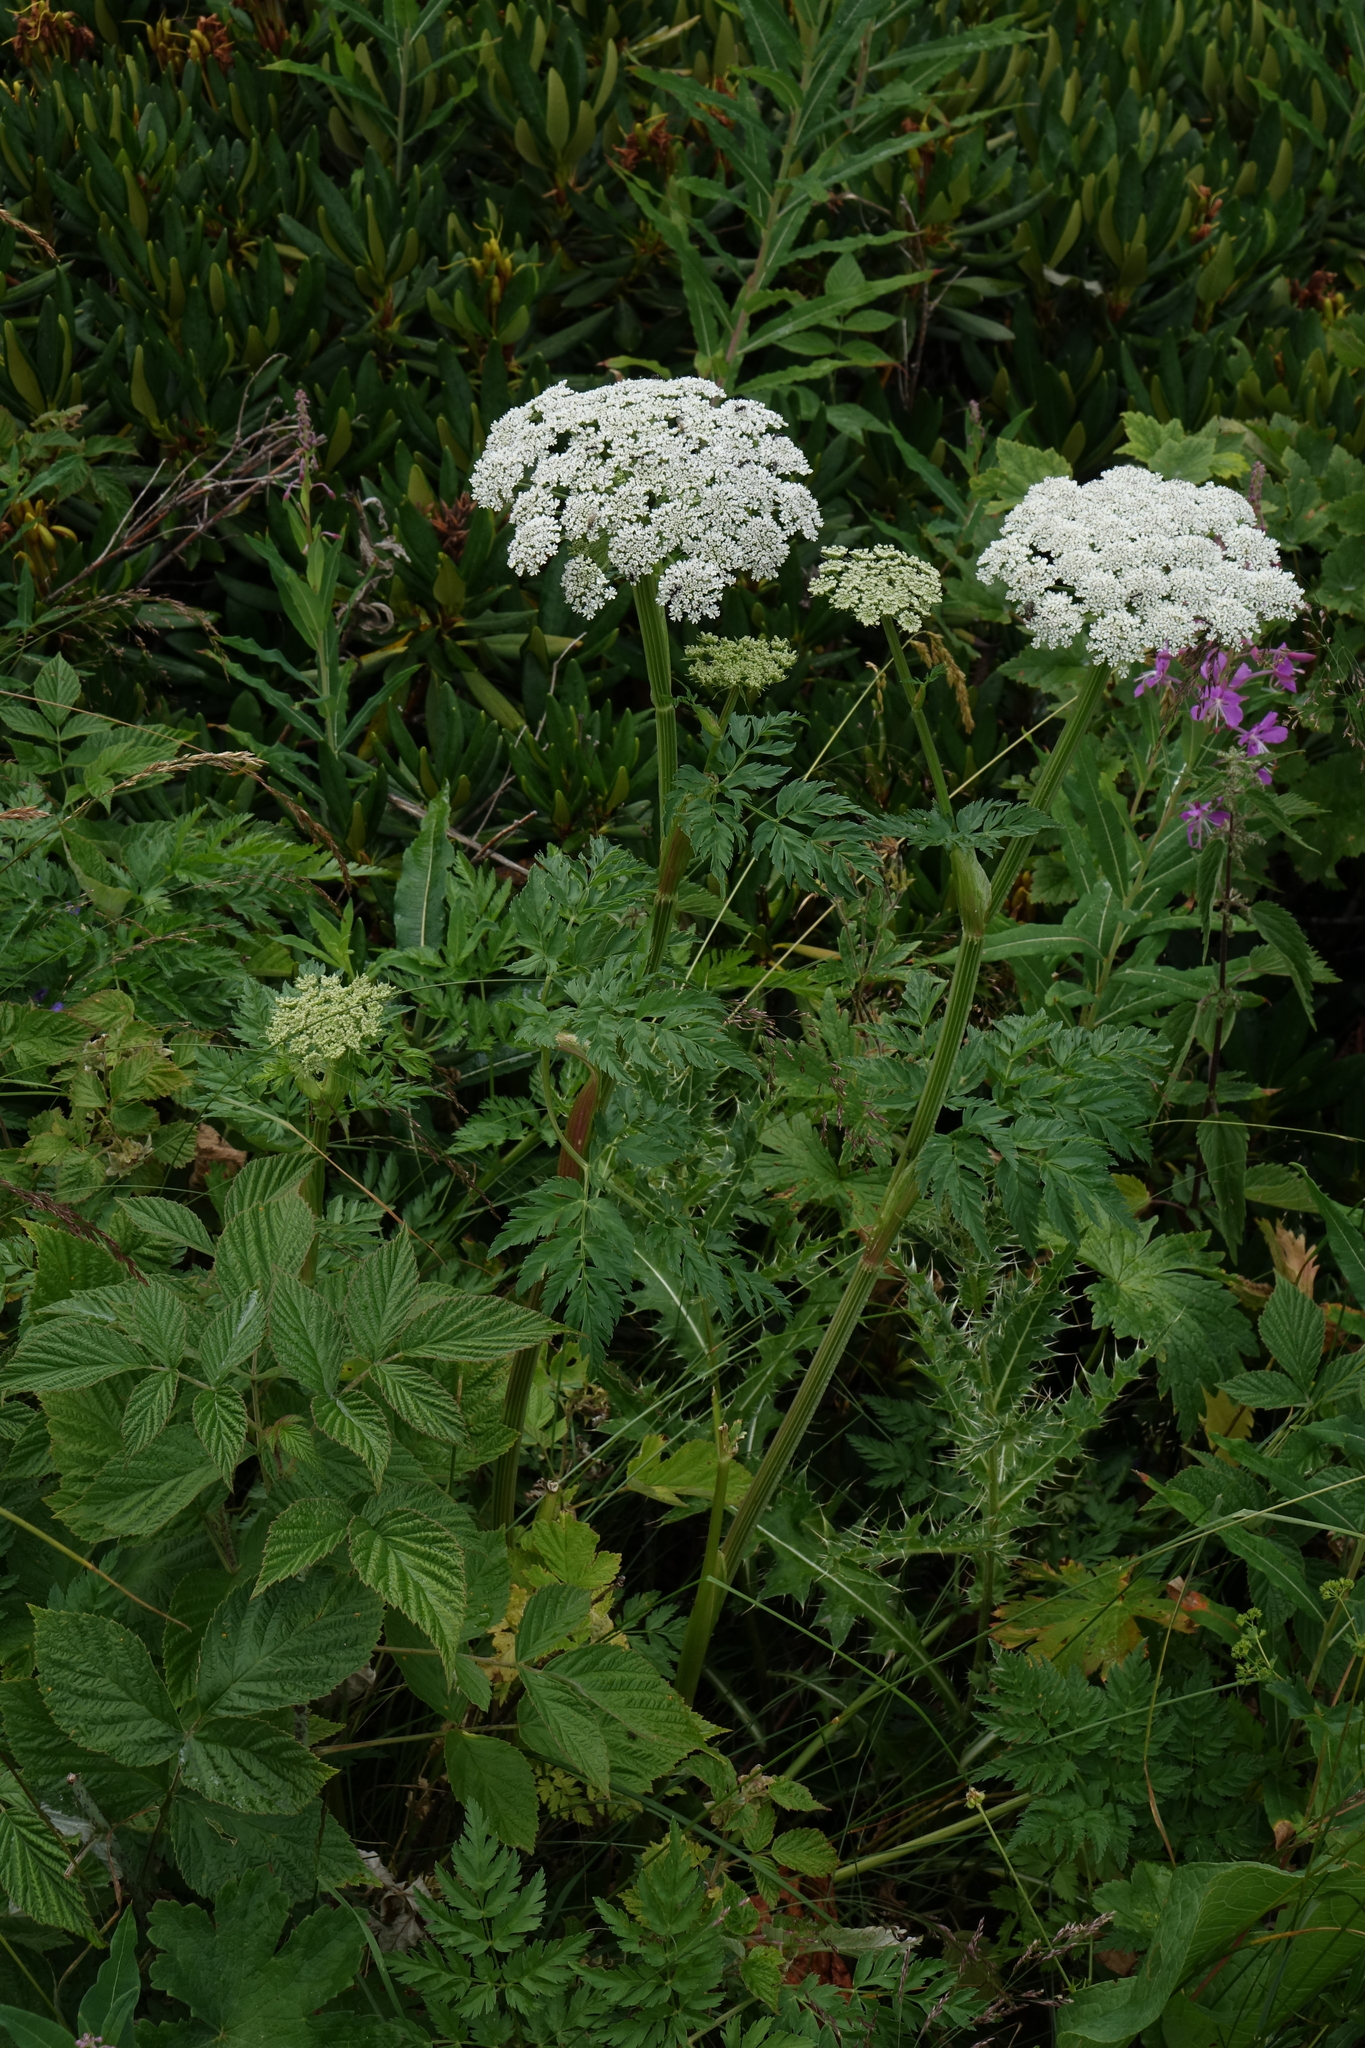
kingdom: Plantae
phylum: Tracheophyta
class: Magnoliopsida
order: Apiales
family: Apiaceae
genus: Selinum
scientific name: Selinum alatum
